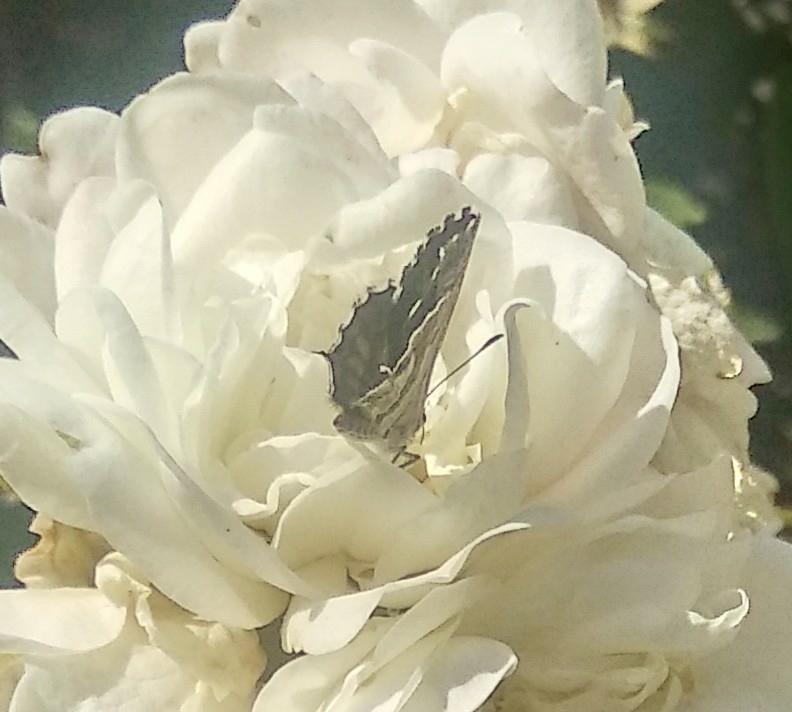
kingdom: Animalia
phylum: Arthropoda
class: Insecta
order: Lepidoptera
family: Lycaenidae
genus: Cacyreus
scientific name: Cacyreus marshalli
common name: Geranium bronze
